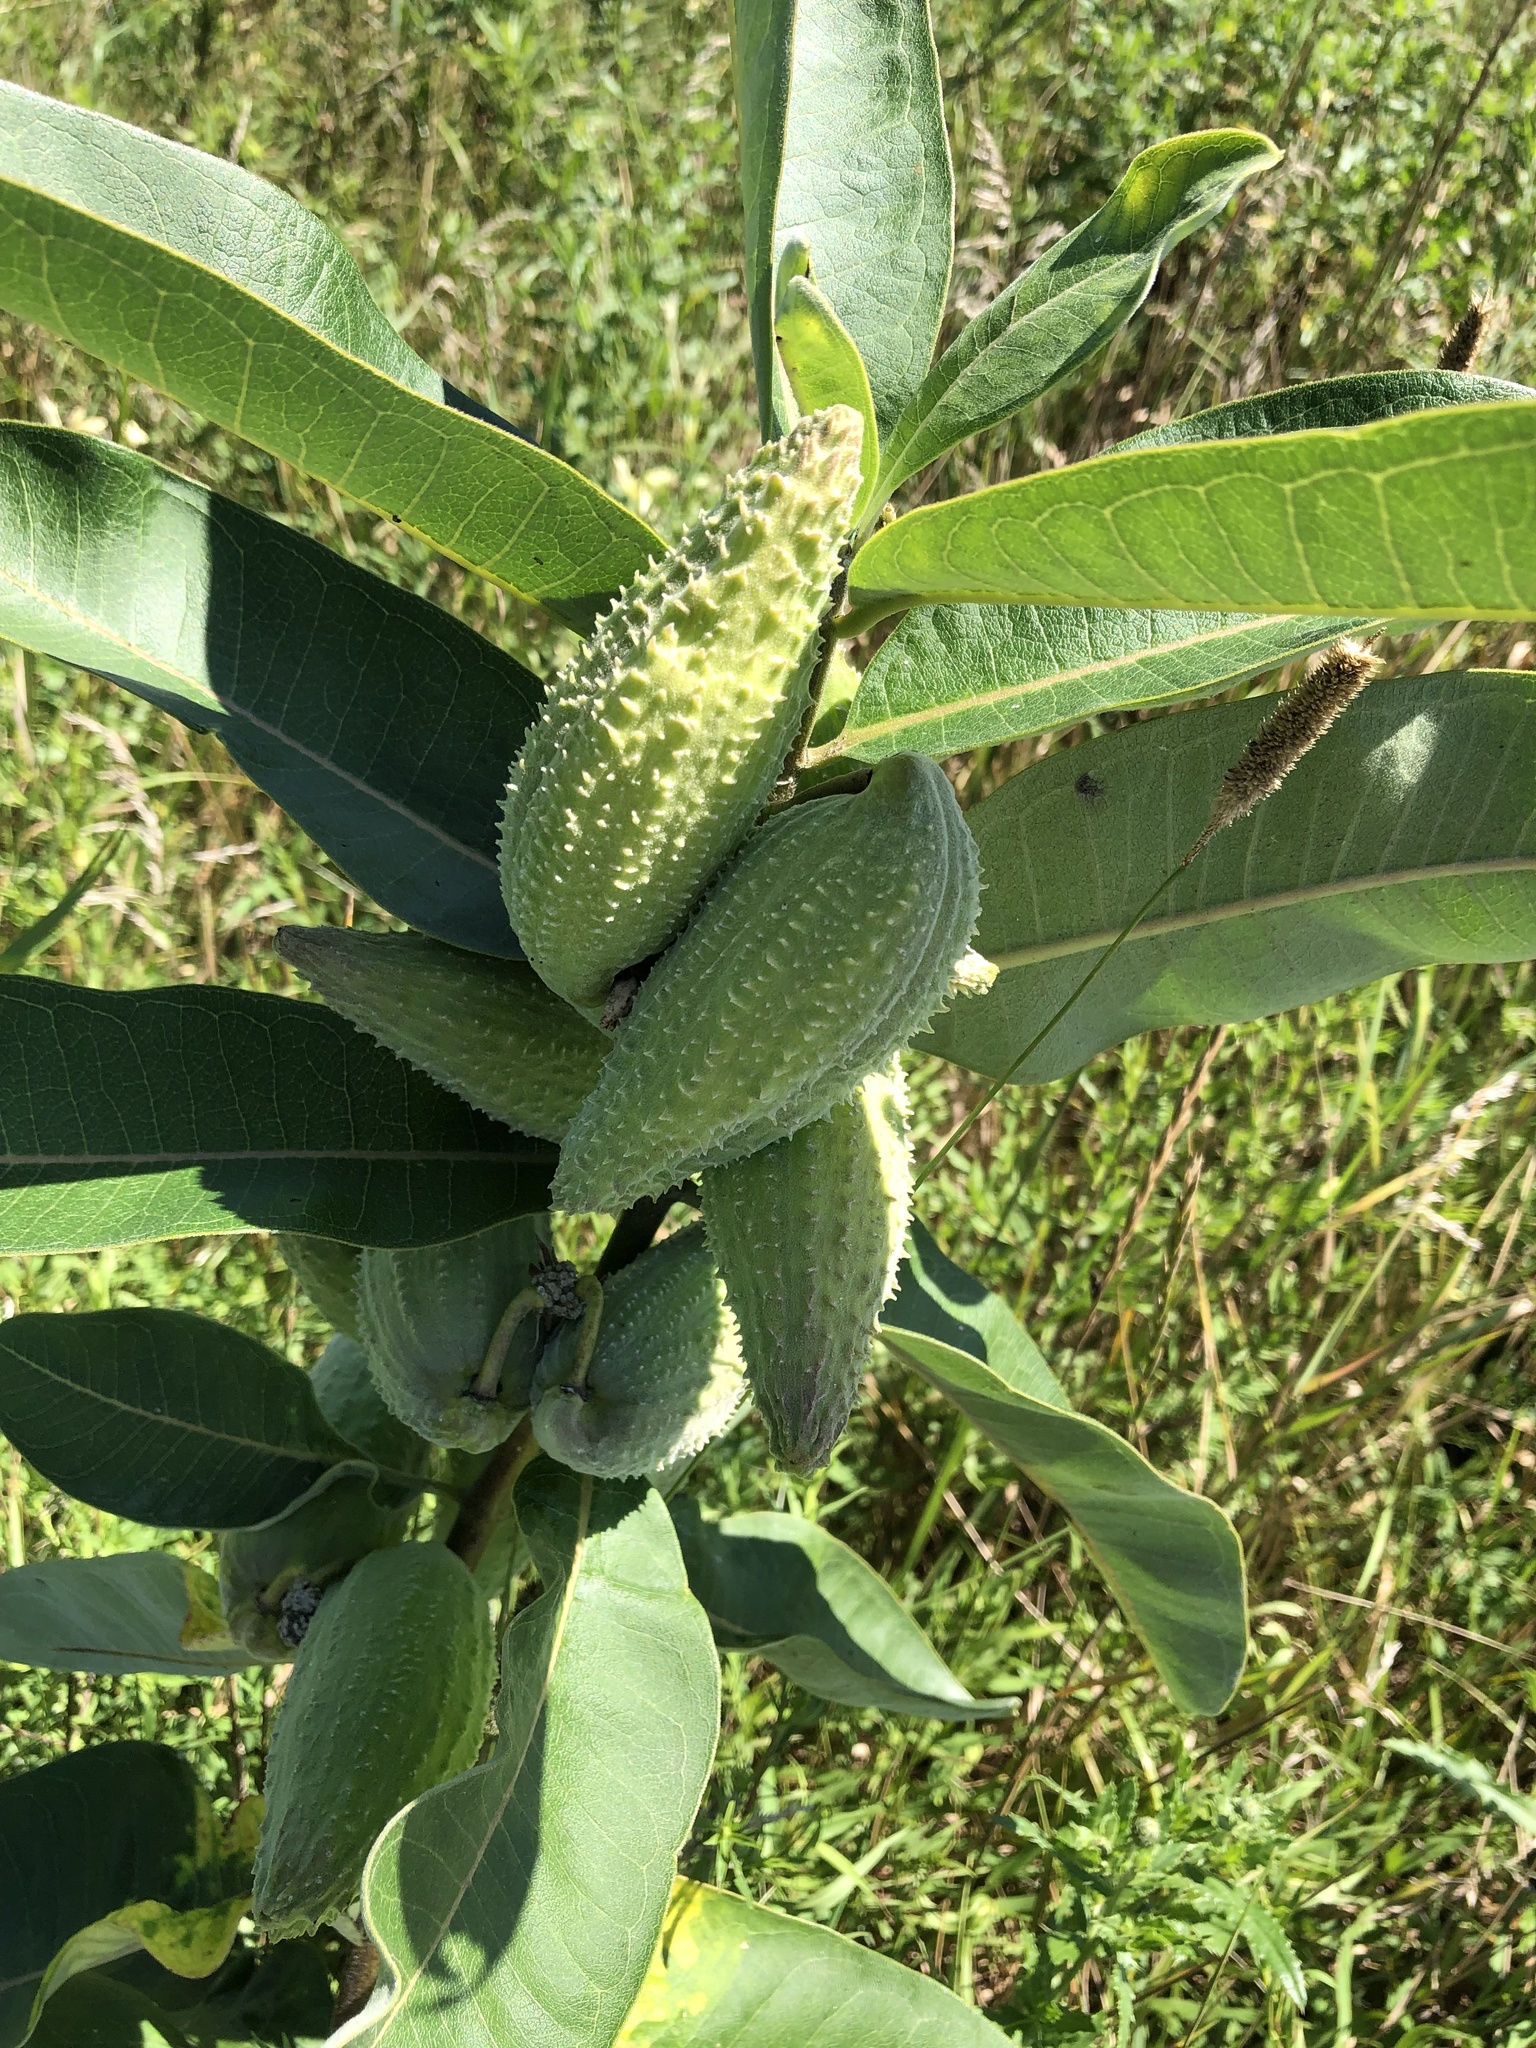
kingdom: Plantae
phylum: Tracheophyta
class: Magnoliopsida
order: Gentianales
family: Apocynaceae
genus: Asclepias
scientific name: Asclepias syriaca
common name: Common milkweed
